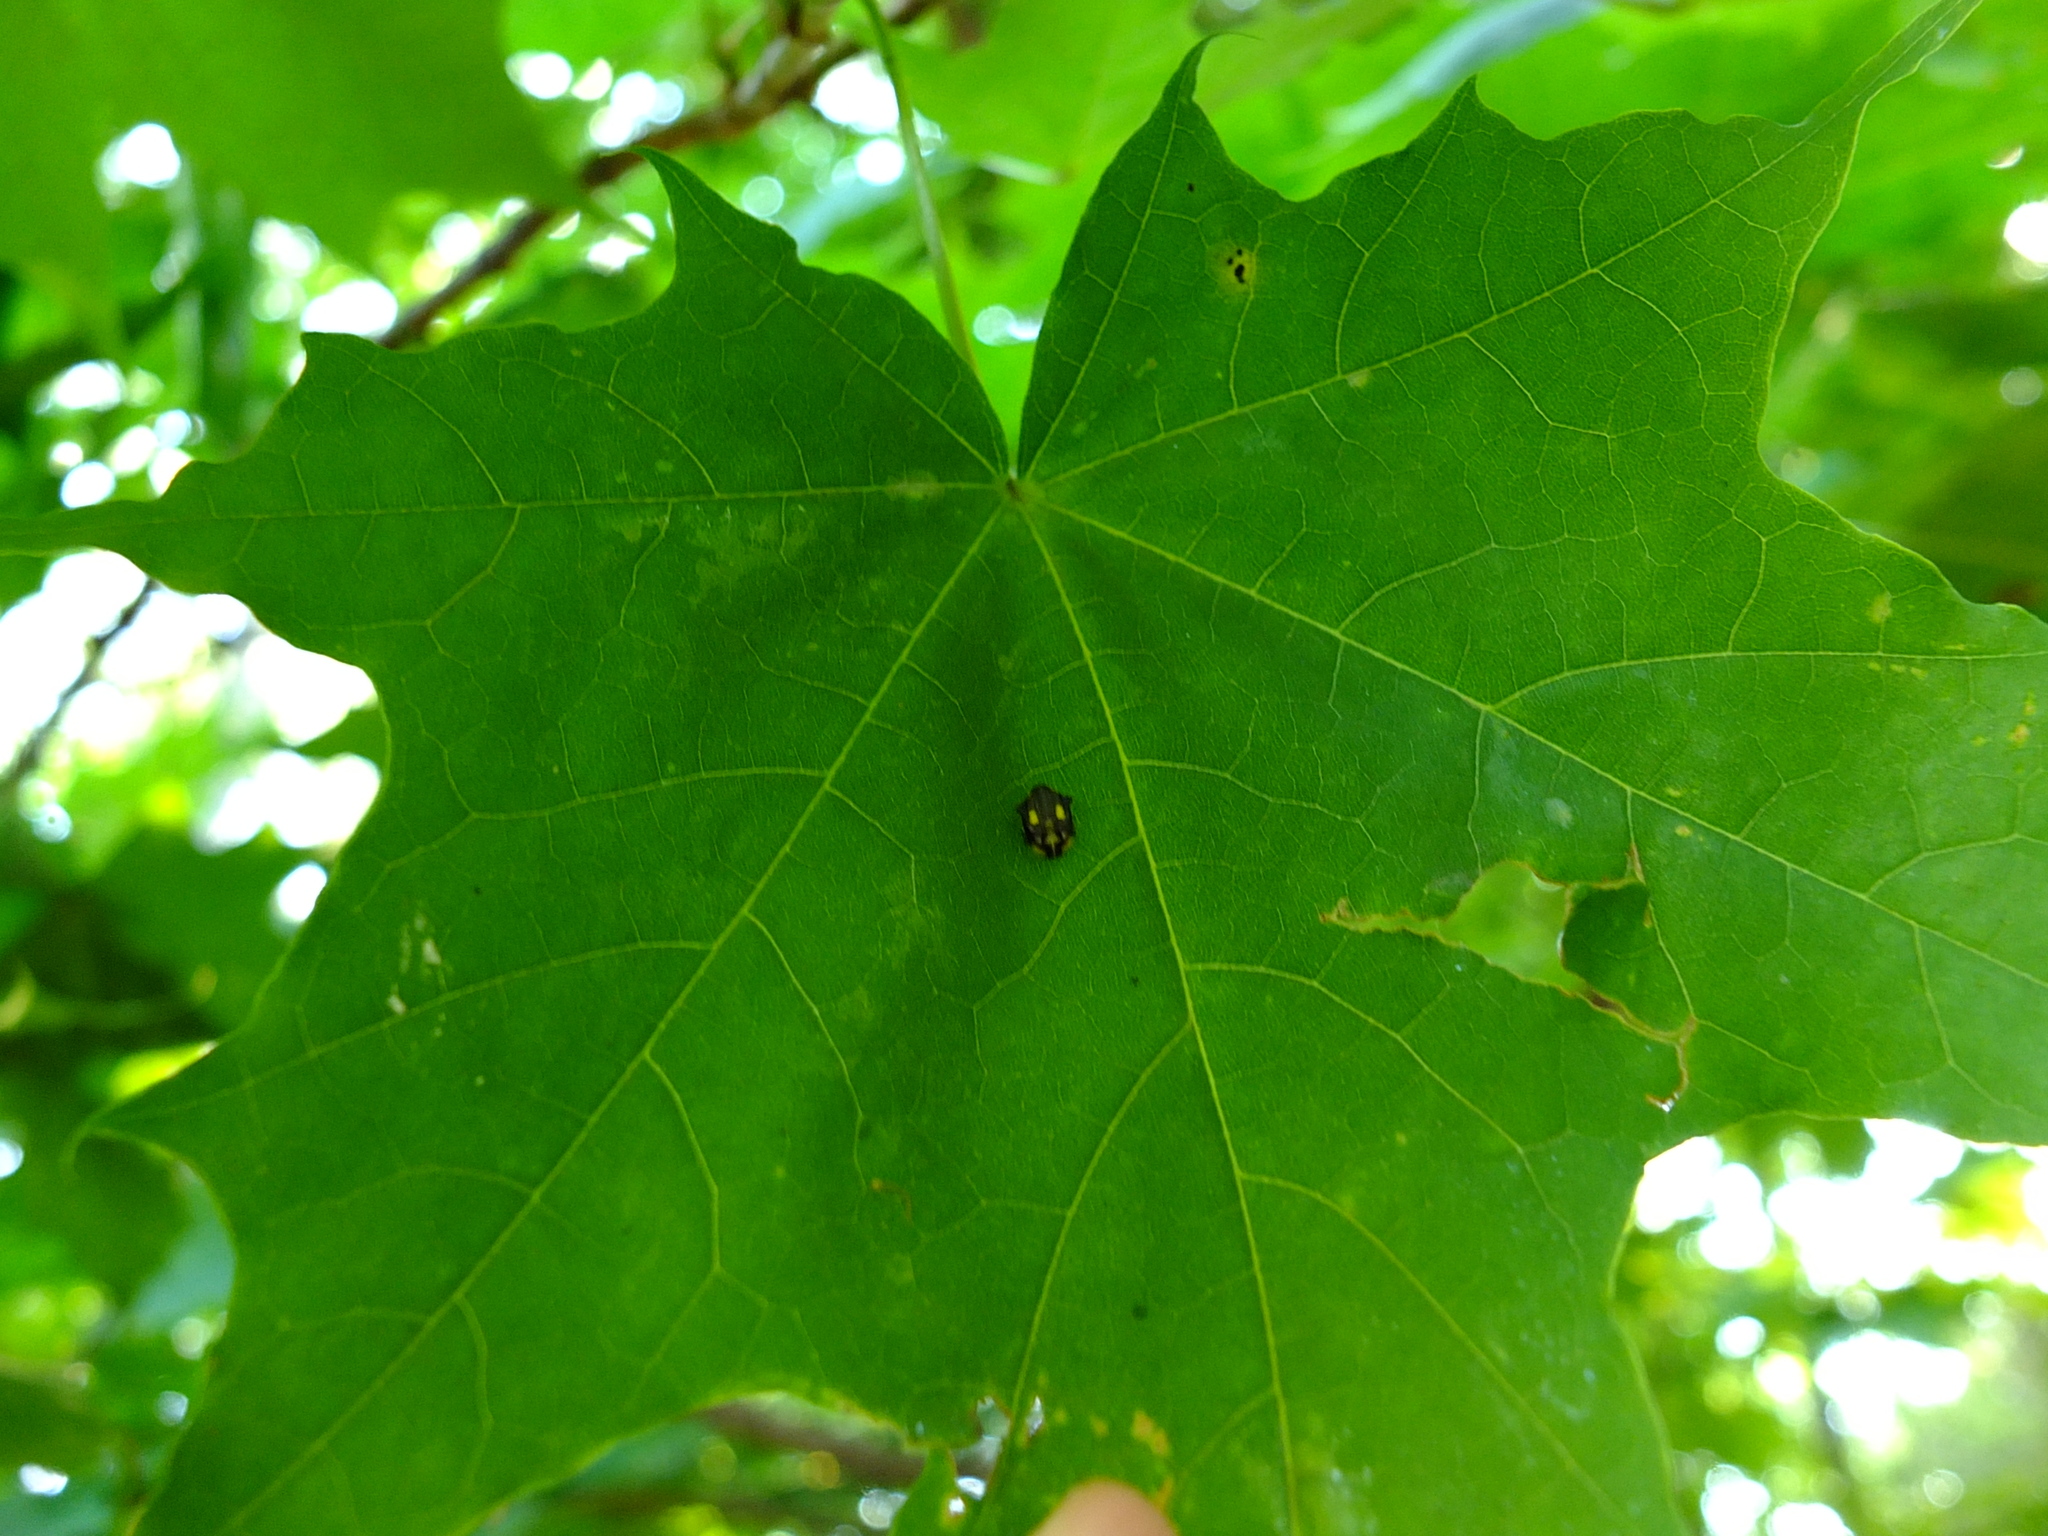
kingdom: Animalia
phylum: Arthropoda
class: Insecta
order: Coleoptera
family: Coccinellidae
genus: Halyzia
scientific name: Halyzia sedecimguttata
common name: Orange ladybird
